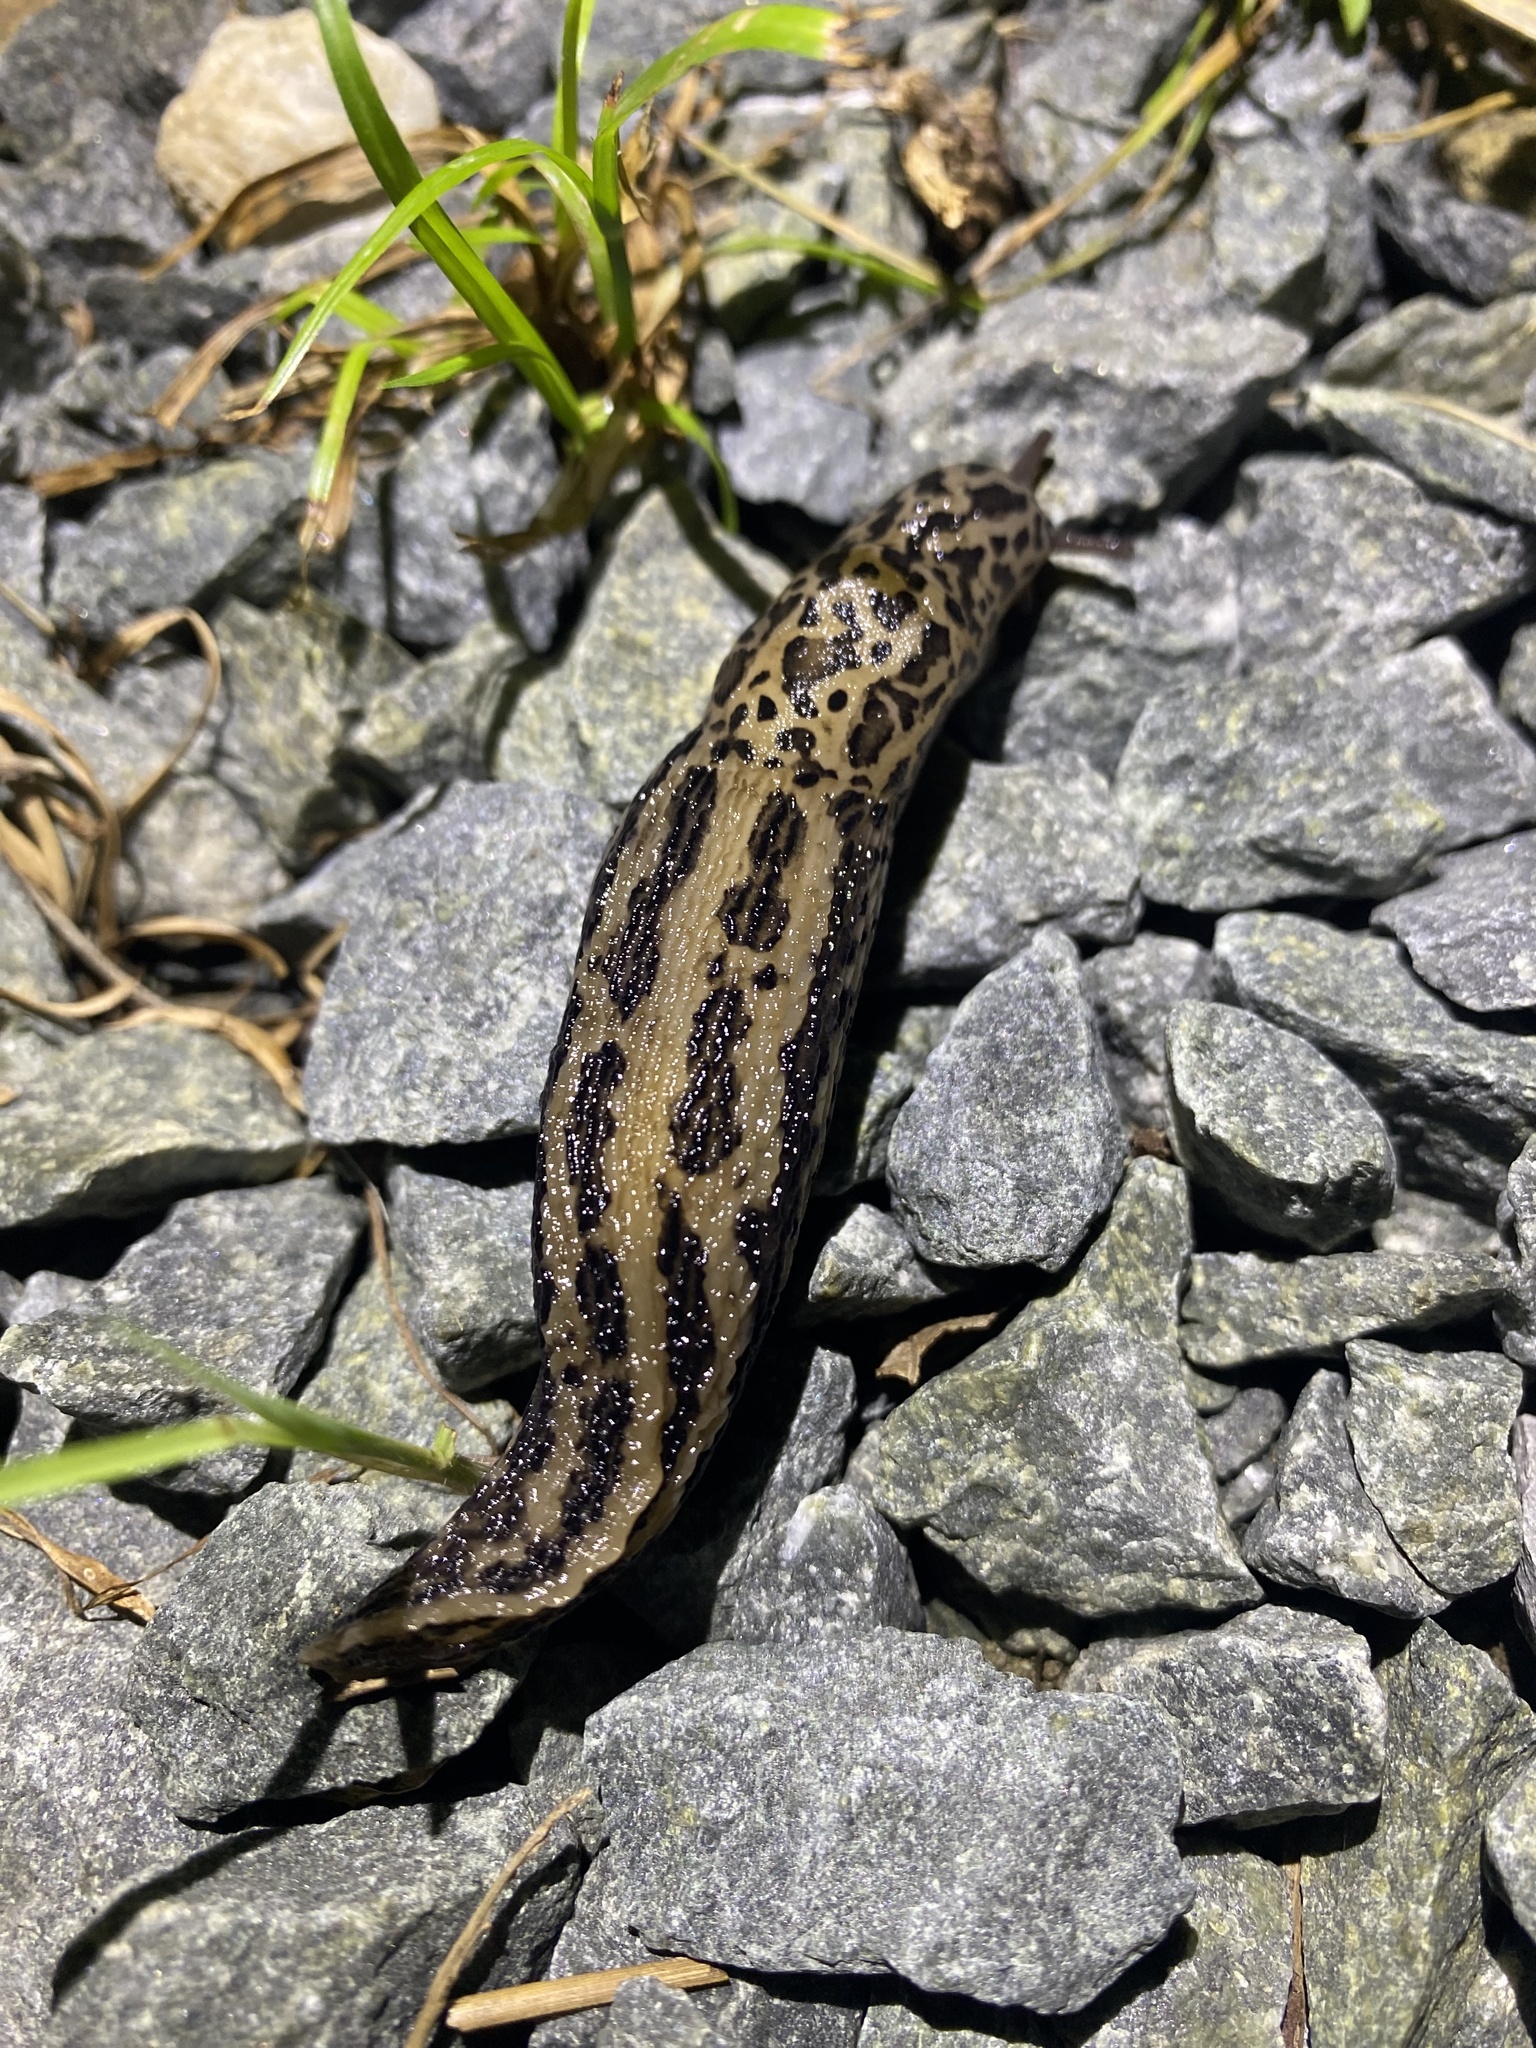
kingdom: Animalia
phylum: Mollusca
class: Gastropoda
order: Stylommatophora
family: Limacidae
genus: Limax
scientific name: Limax maximus
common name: Great grey slug
